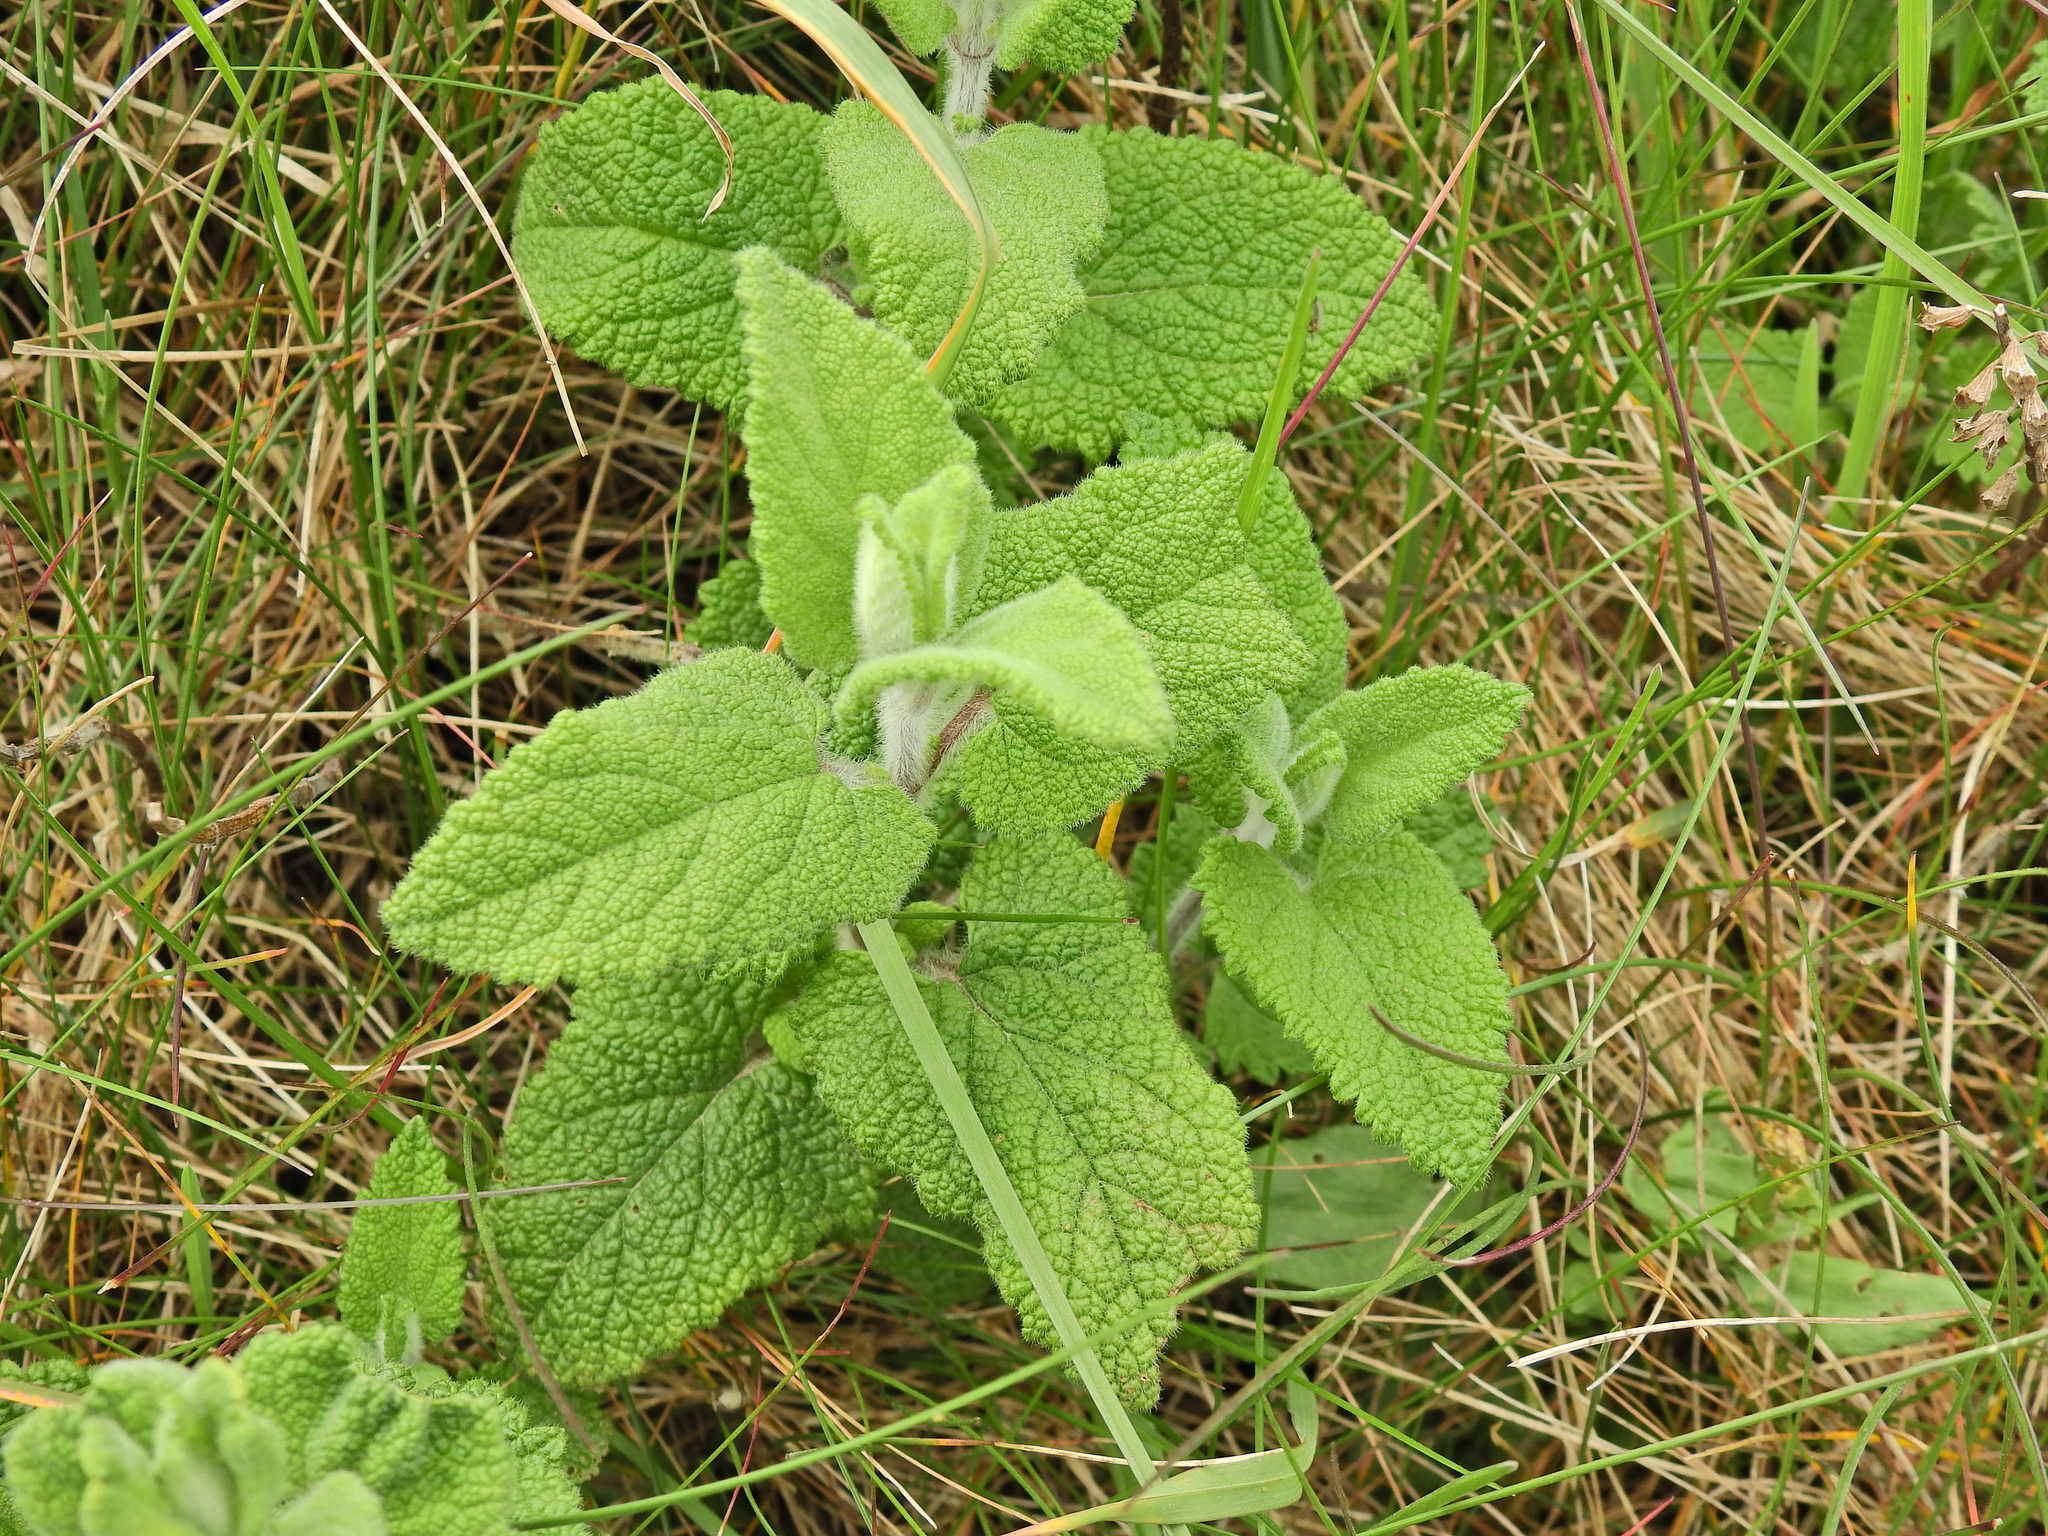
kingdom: Plantae
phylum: Tracheophyta
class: Magnoliopsida
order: Lamiales
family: Lamiaceae
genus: Teucrium
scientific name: Teucrium scorodonia
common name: Woodland germander
